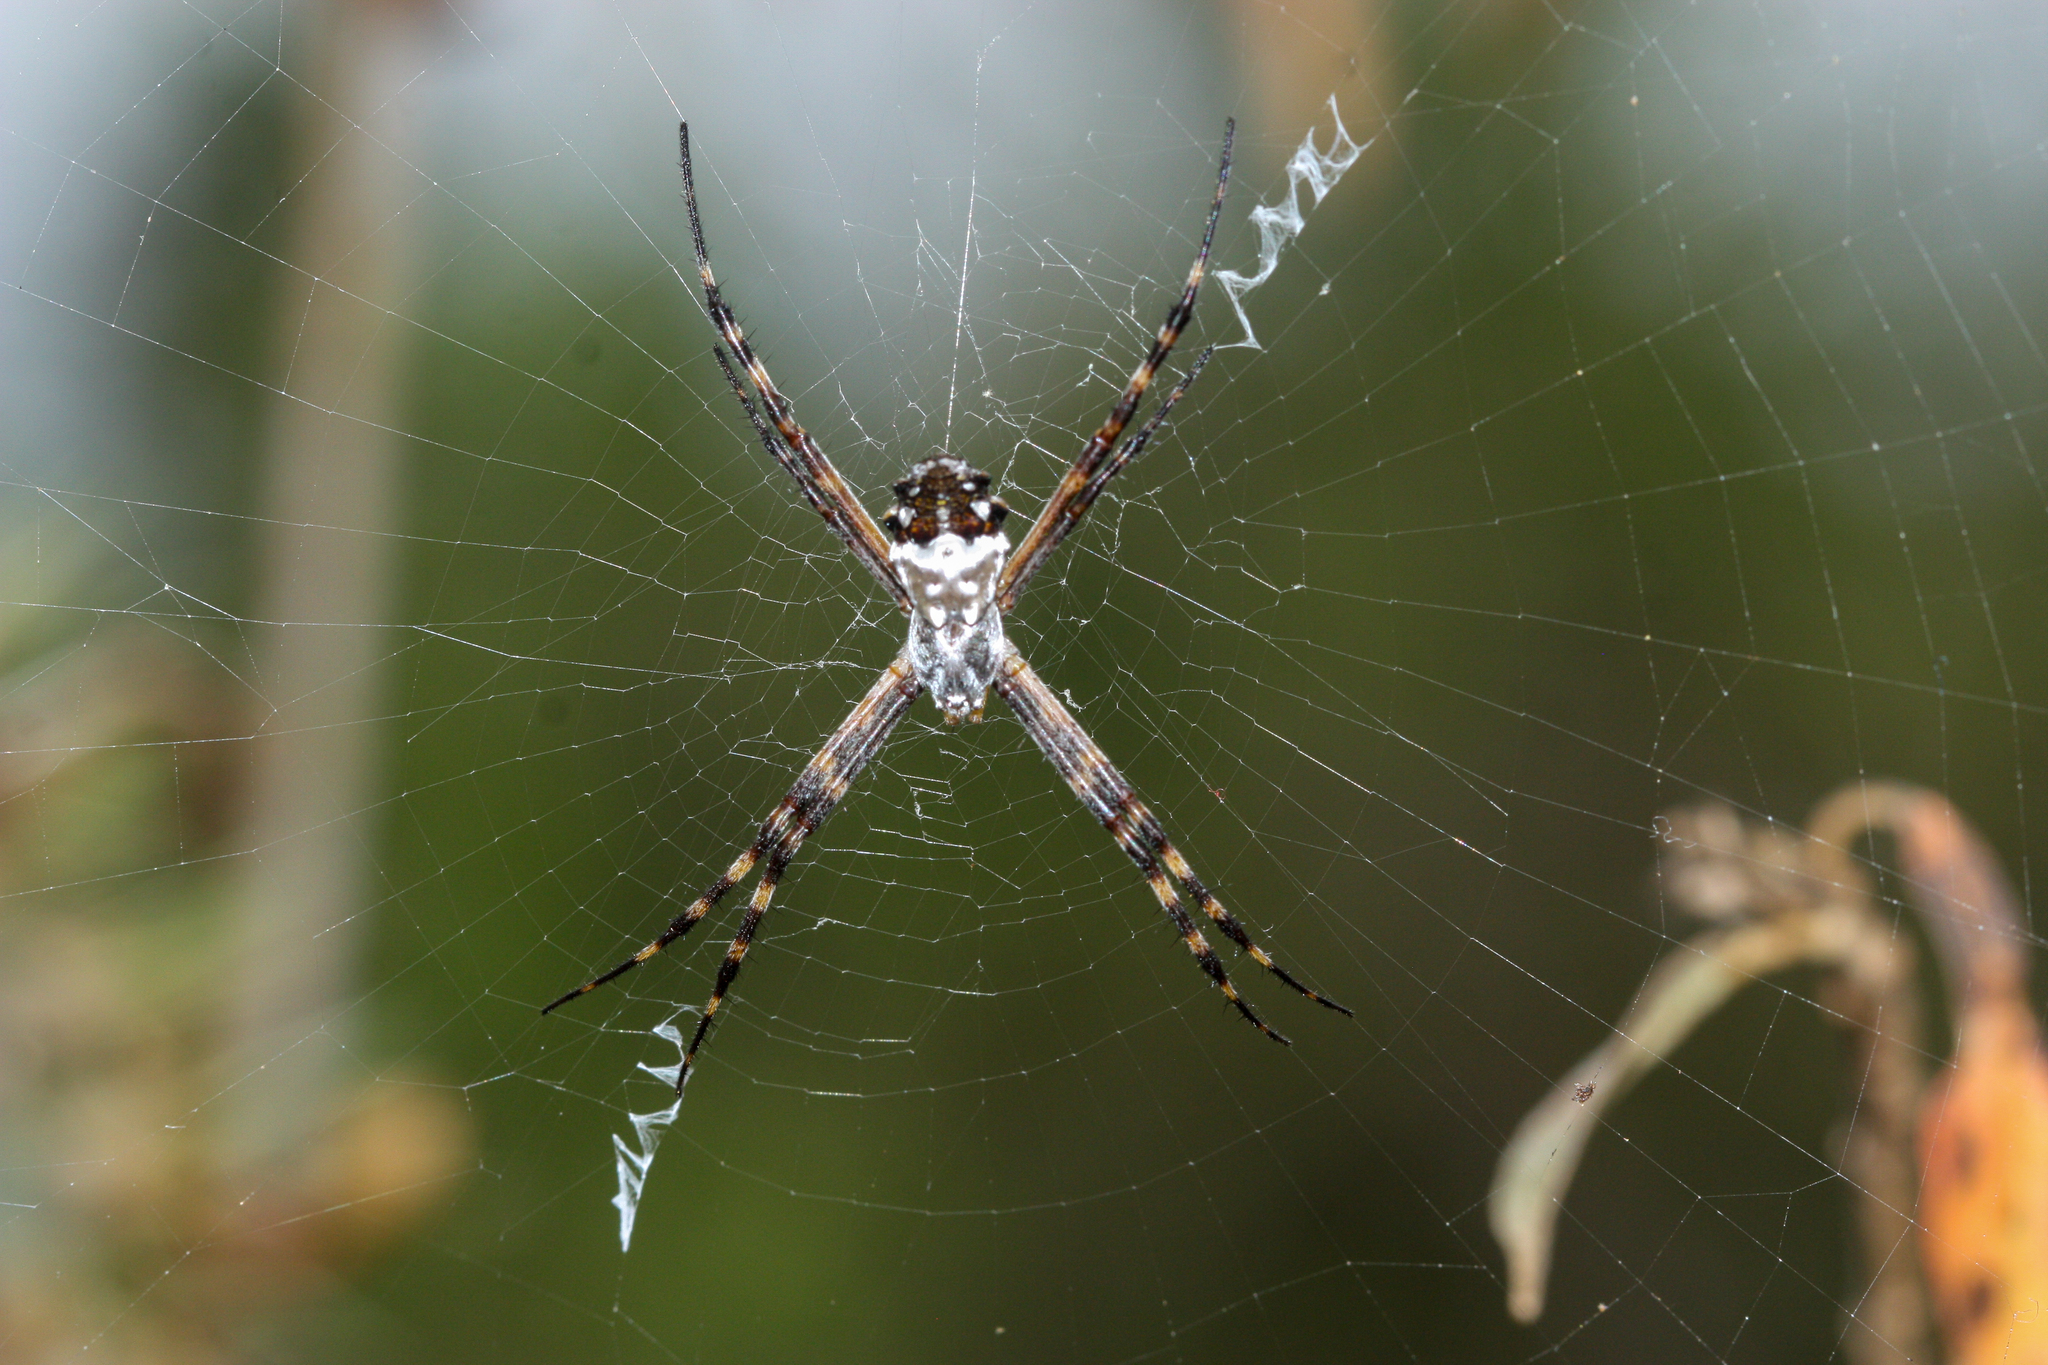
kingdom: Animalia
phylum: Arthropoda
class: Arachnida
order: Araneae
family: Araneidae
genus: Argiope
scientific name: Argiope argentata
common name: Orb weavers
